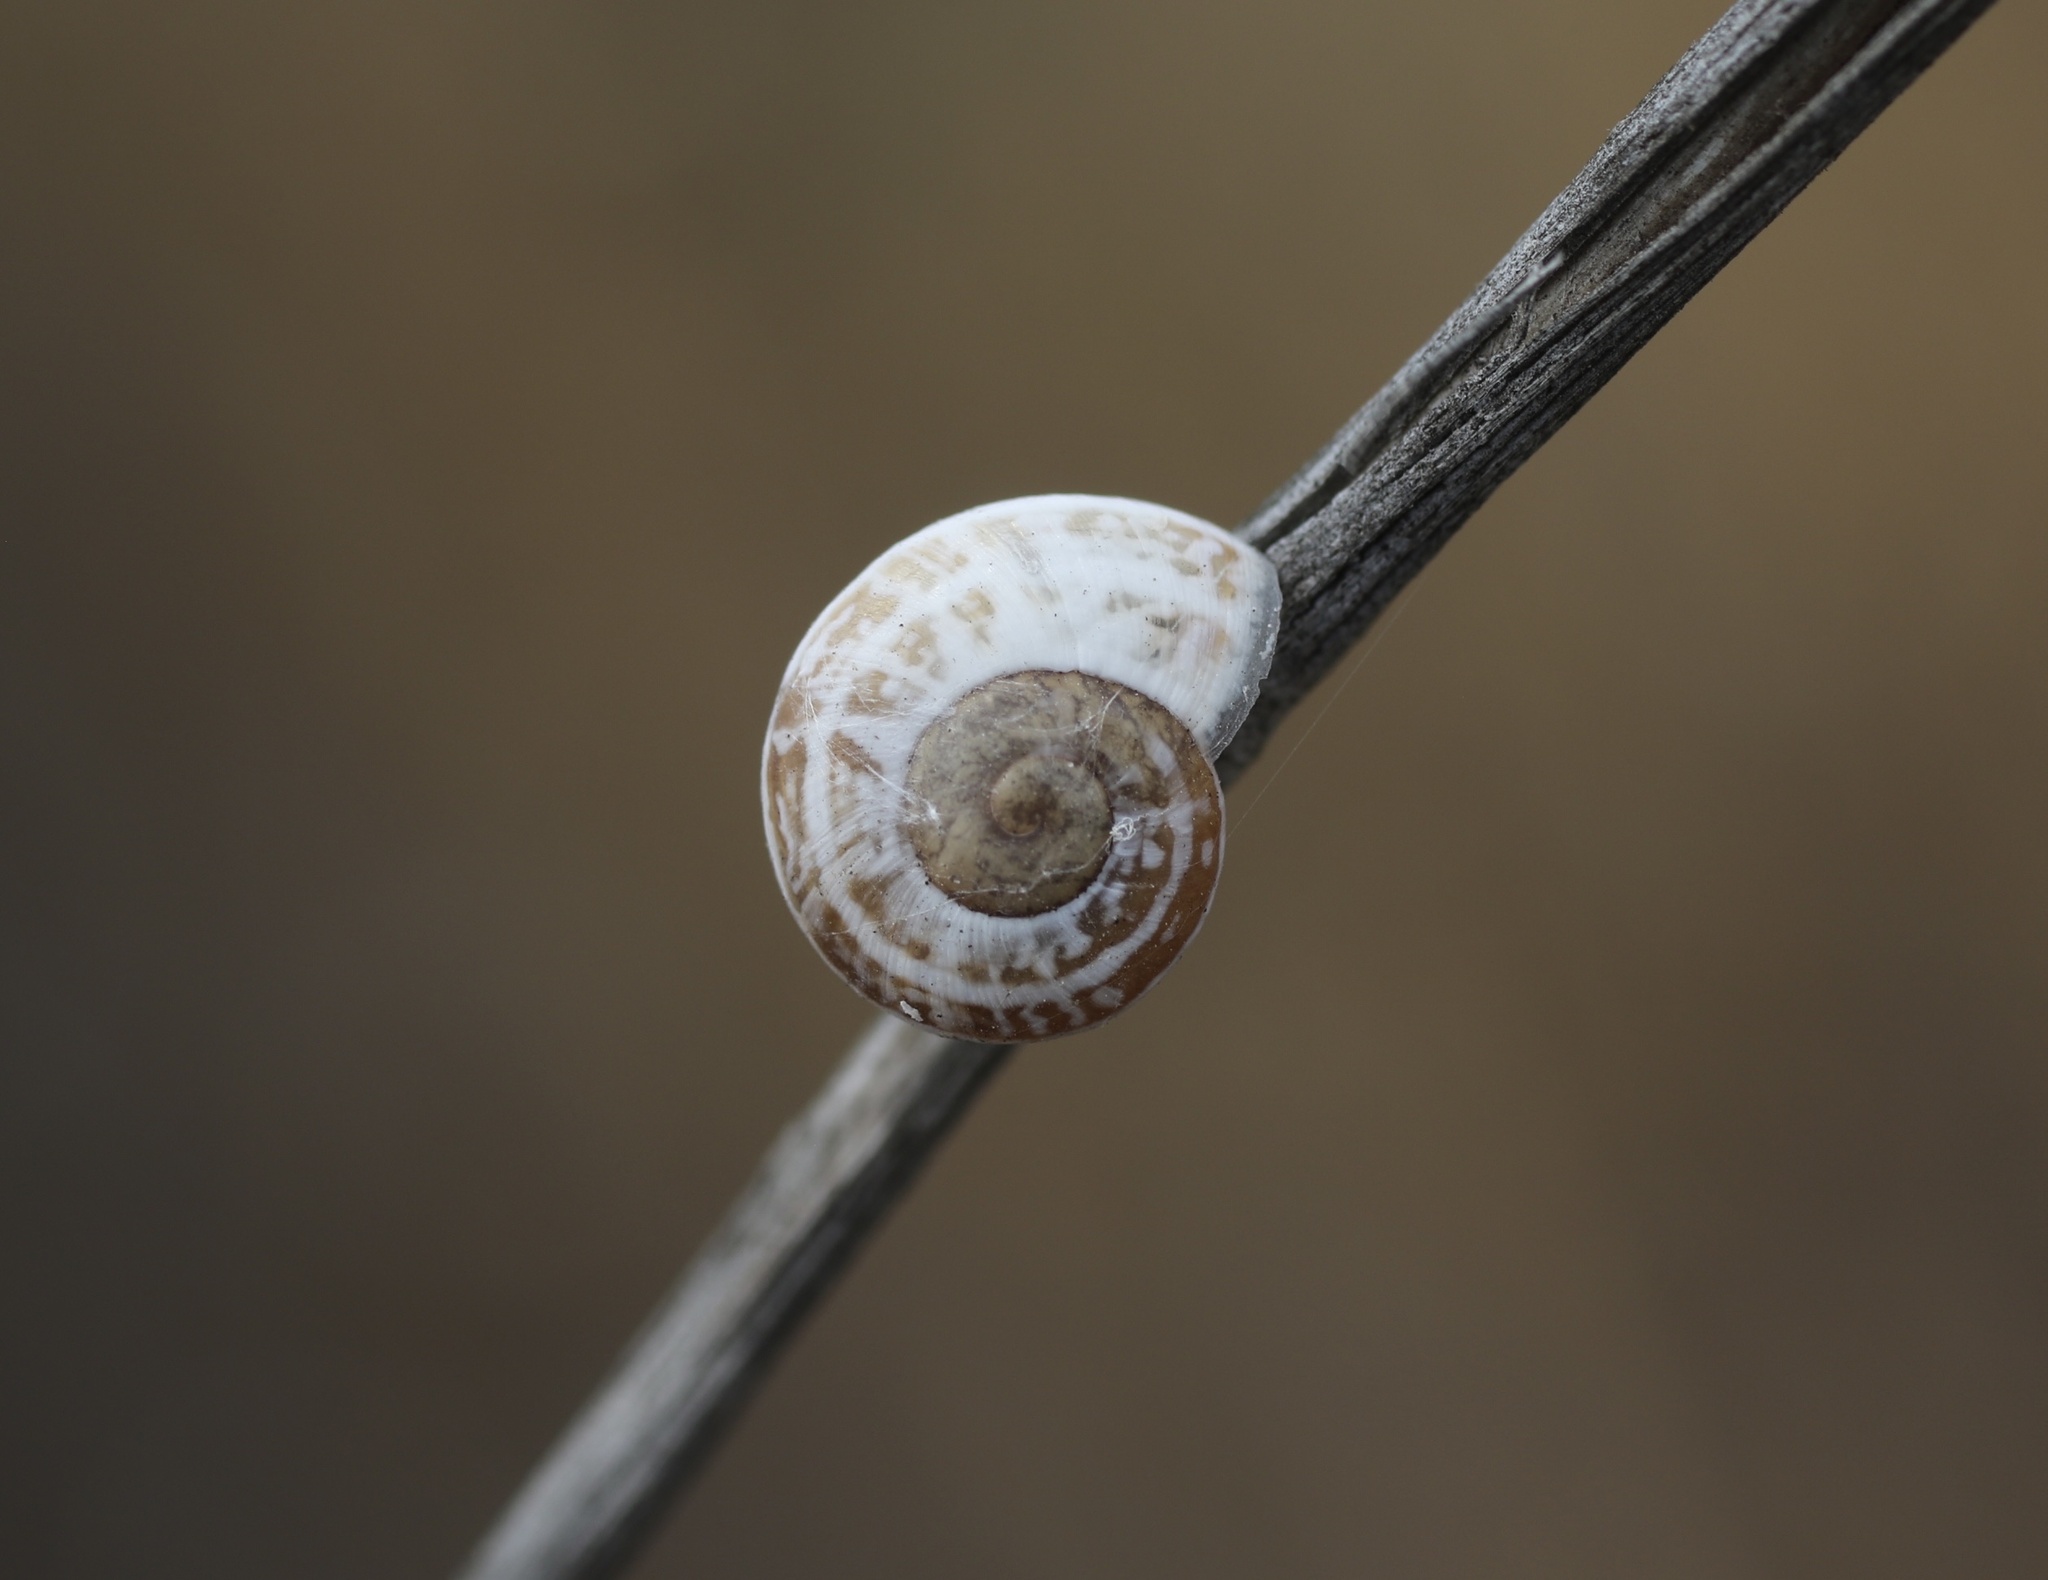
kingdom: Animalia
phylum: Mollusca
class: Gastropoda
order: Stylommatophora
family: Helicidae
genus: Otala
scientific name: Otala lactea
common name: Milk snail
